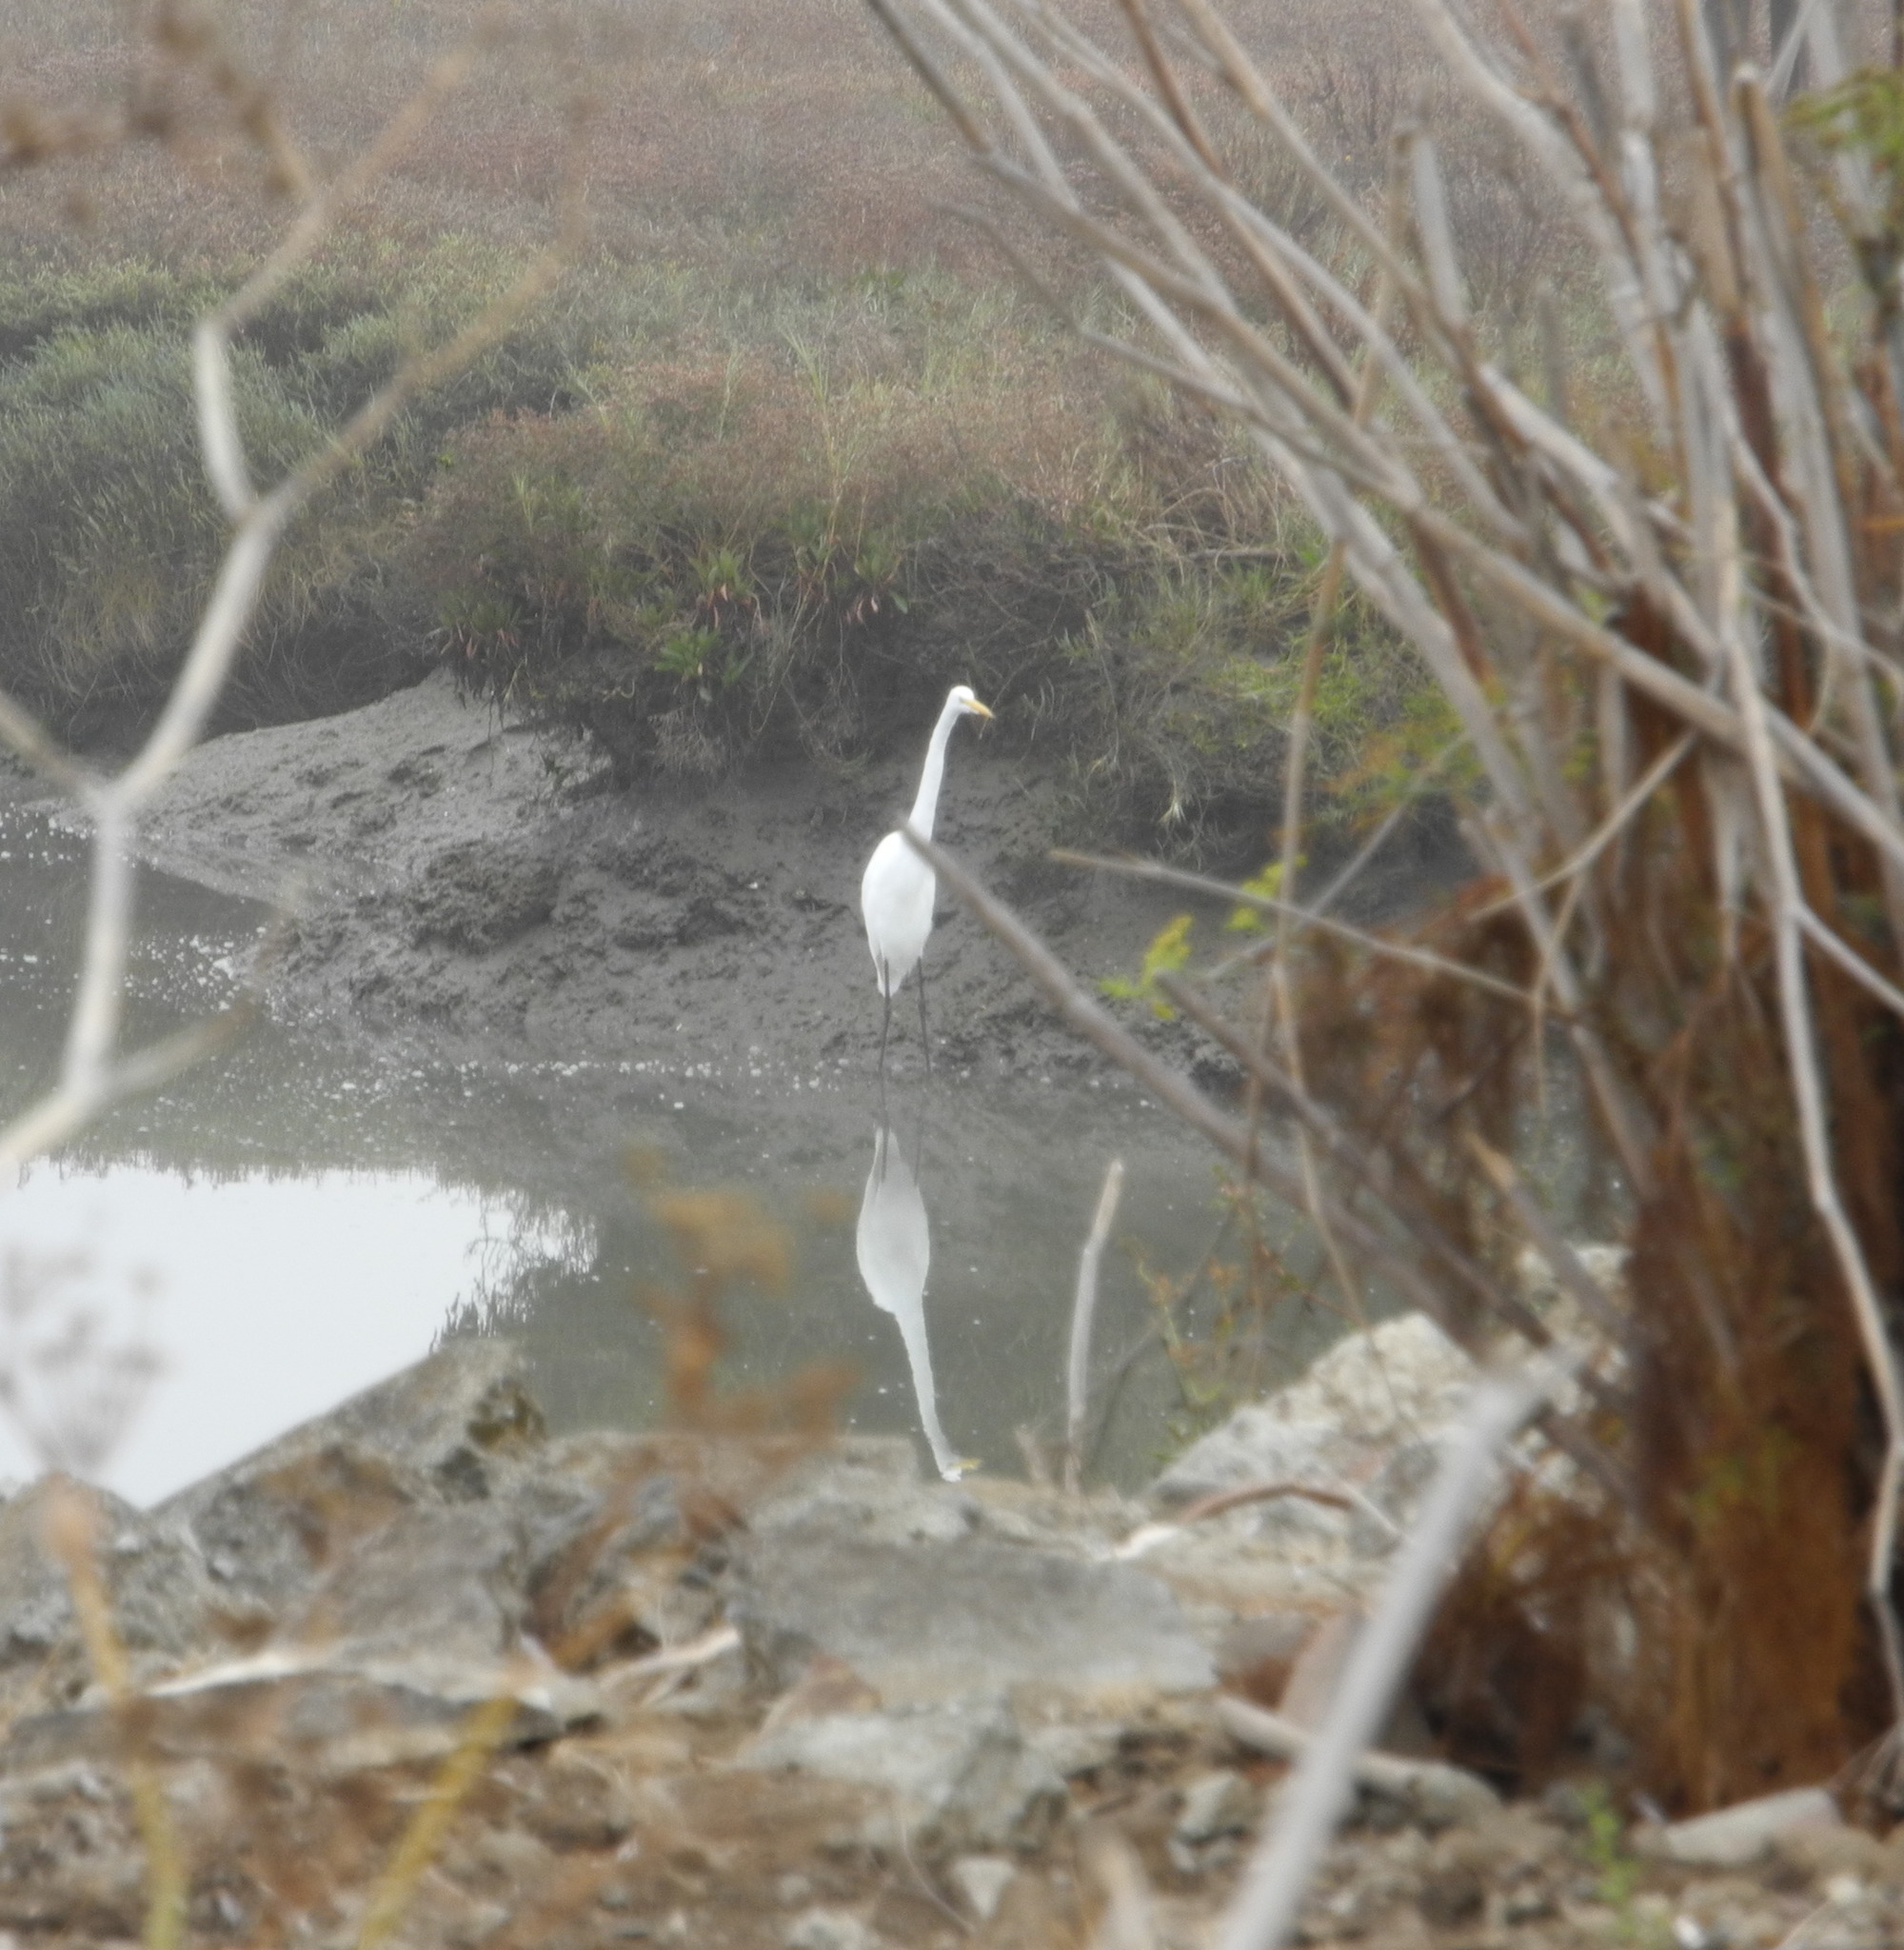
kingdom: Animalia
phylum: Chordata
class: Aves
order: Pelecaniformes
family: Ardeidae
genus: Ardea
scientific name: Ardea alba
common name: Great egret
